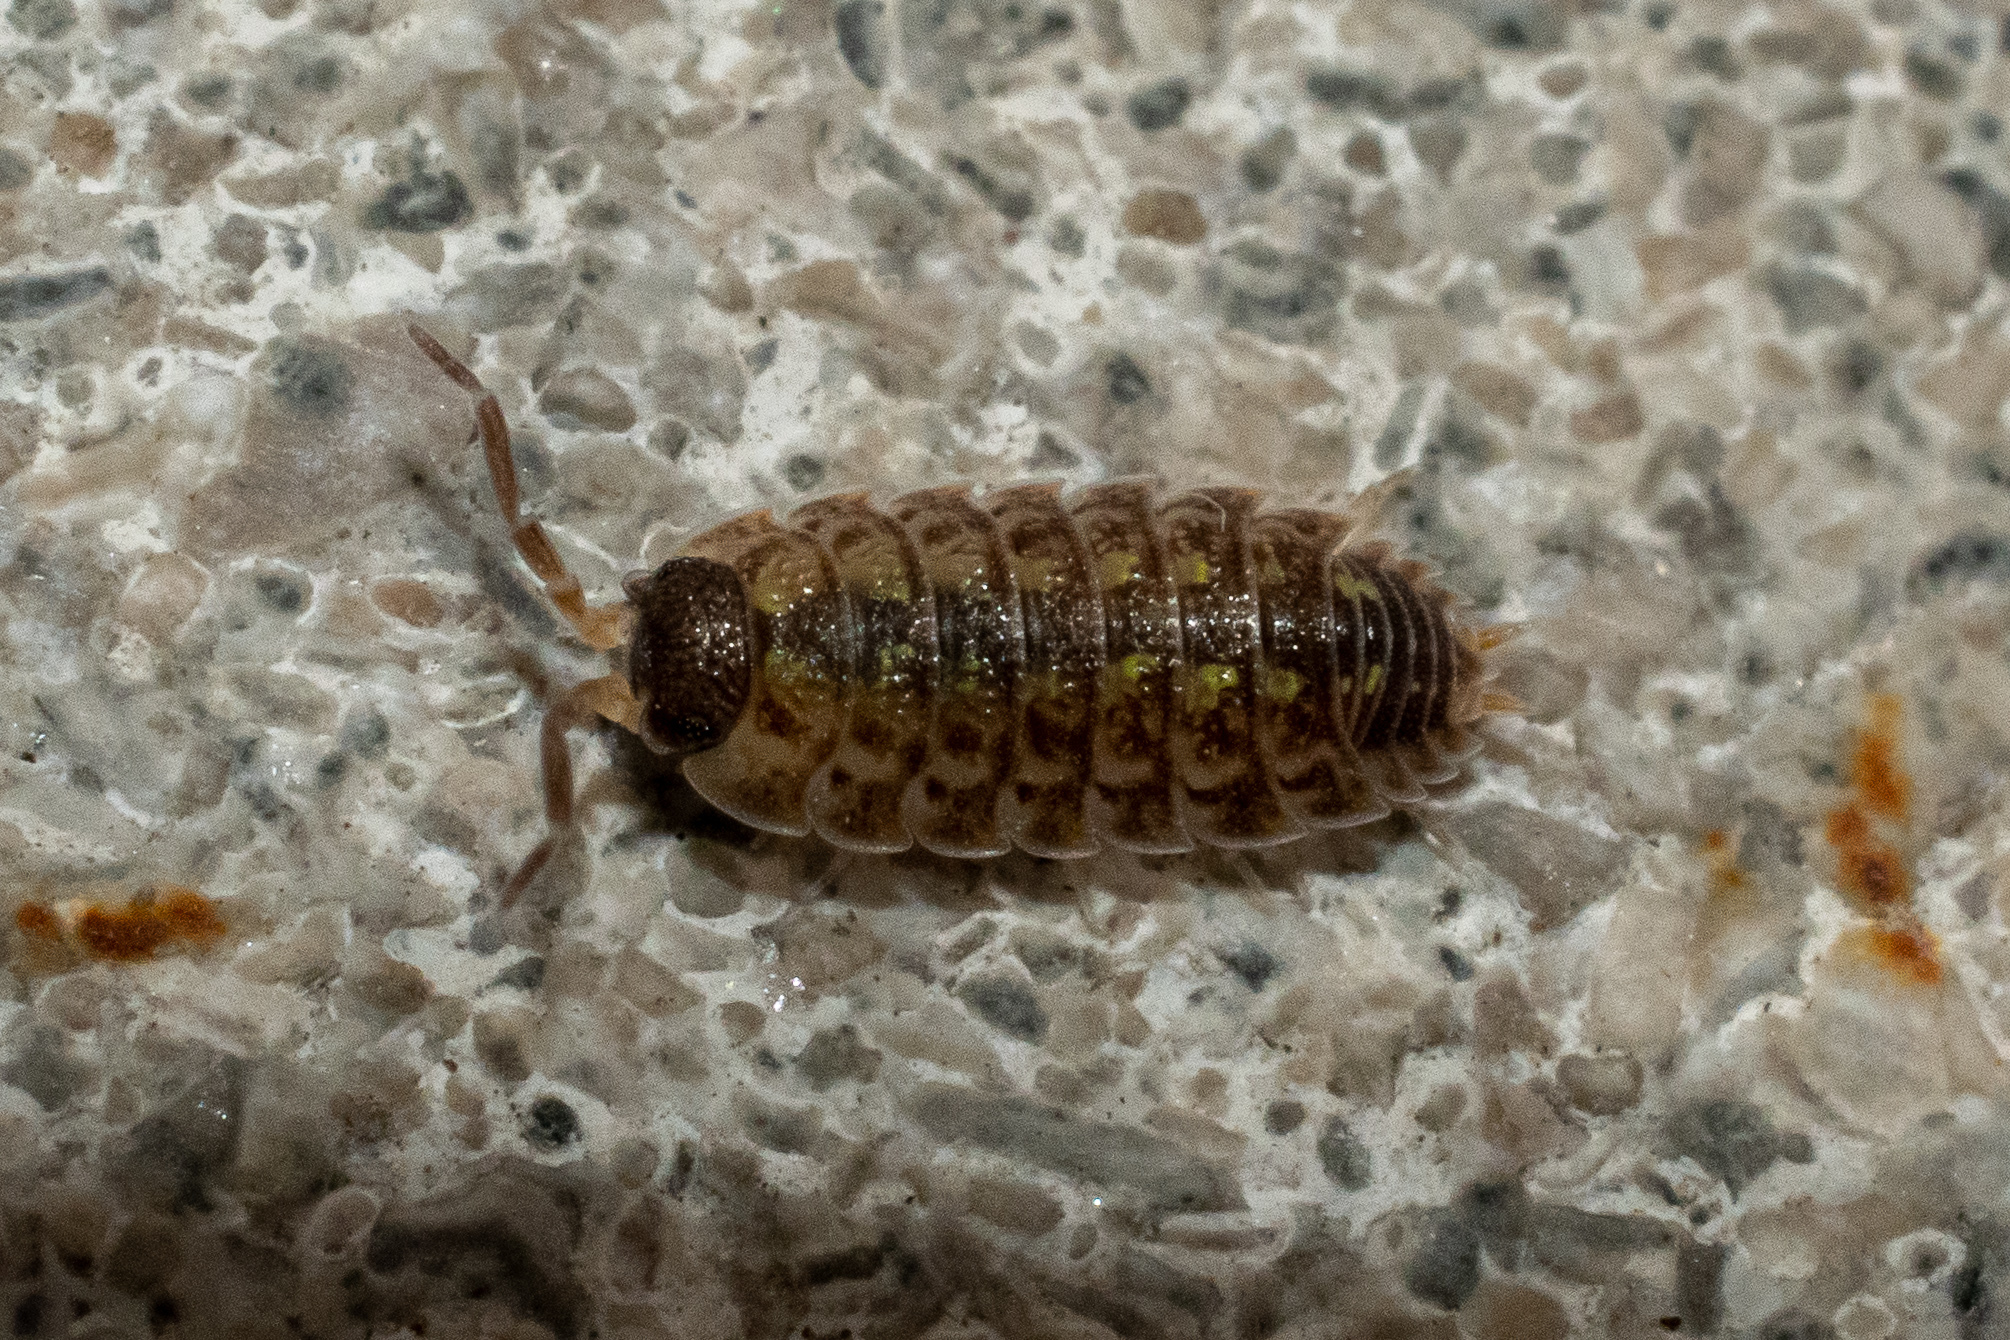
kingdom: Animalia
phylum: Arthropoda
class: Malacostraca
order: Isopoda
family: Porcellionidae
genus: Porcellio
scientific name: Porcellio spinicornis
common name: Painted woodlouse
